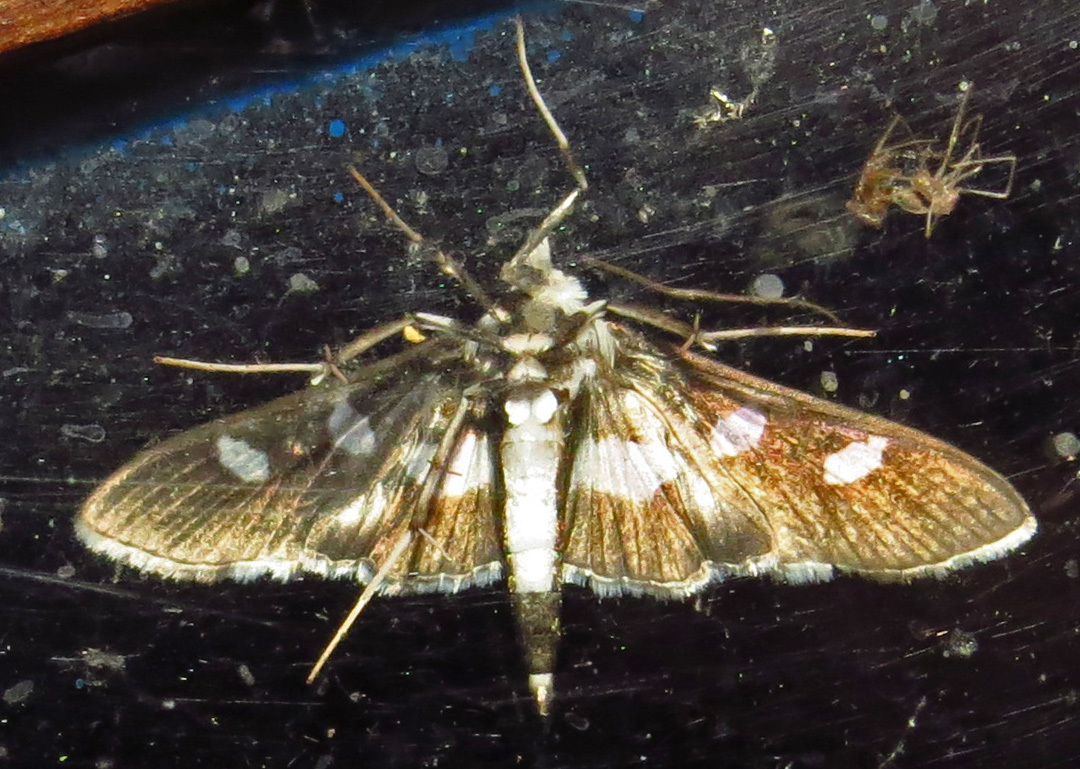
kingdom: Animalia
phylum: Arthropoda
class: Insecta
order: Lepidoptera
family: Crambidae
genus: Desmia
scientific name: Desmia funeralis
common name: Grape leaf folder moth
